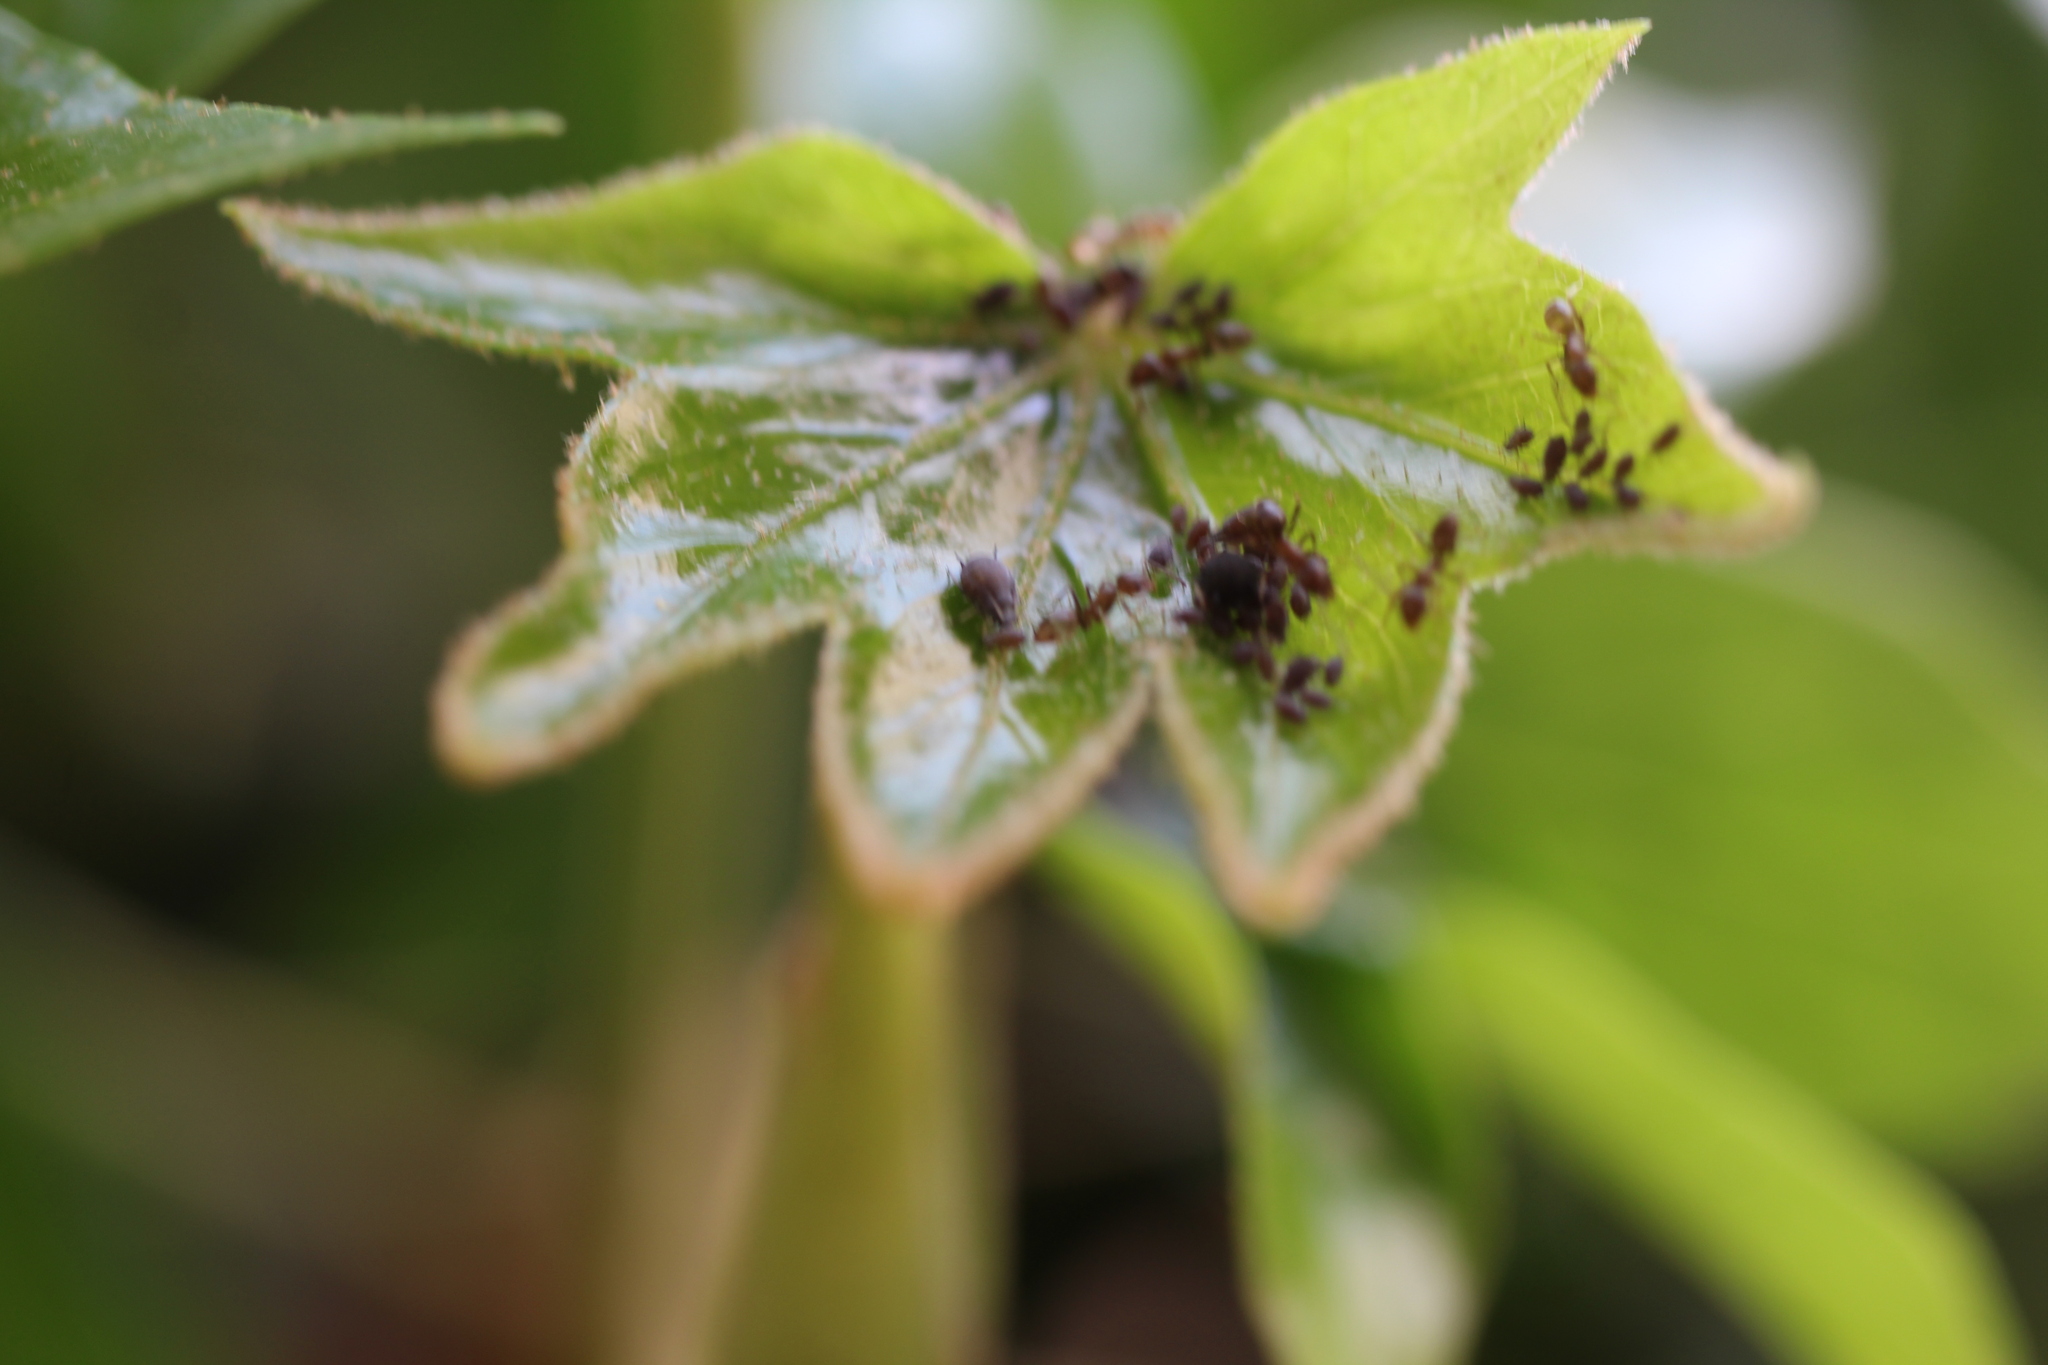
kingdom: Animalia
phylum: Arthropoda
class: Insecta
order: Hymenoptera
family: Formicidae
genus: Linepithema
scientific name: Linepithema humile
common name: Argentine ant
